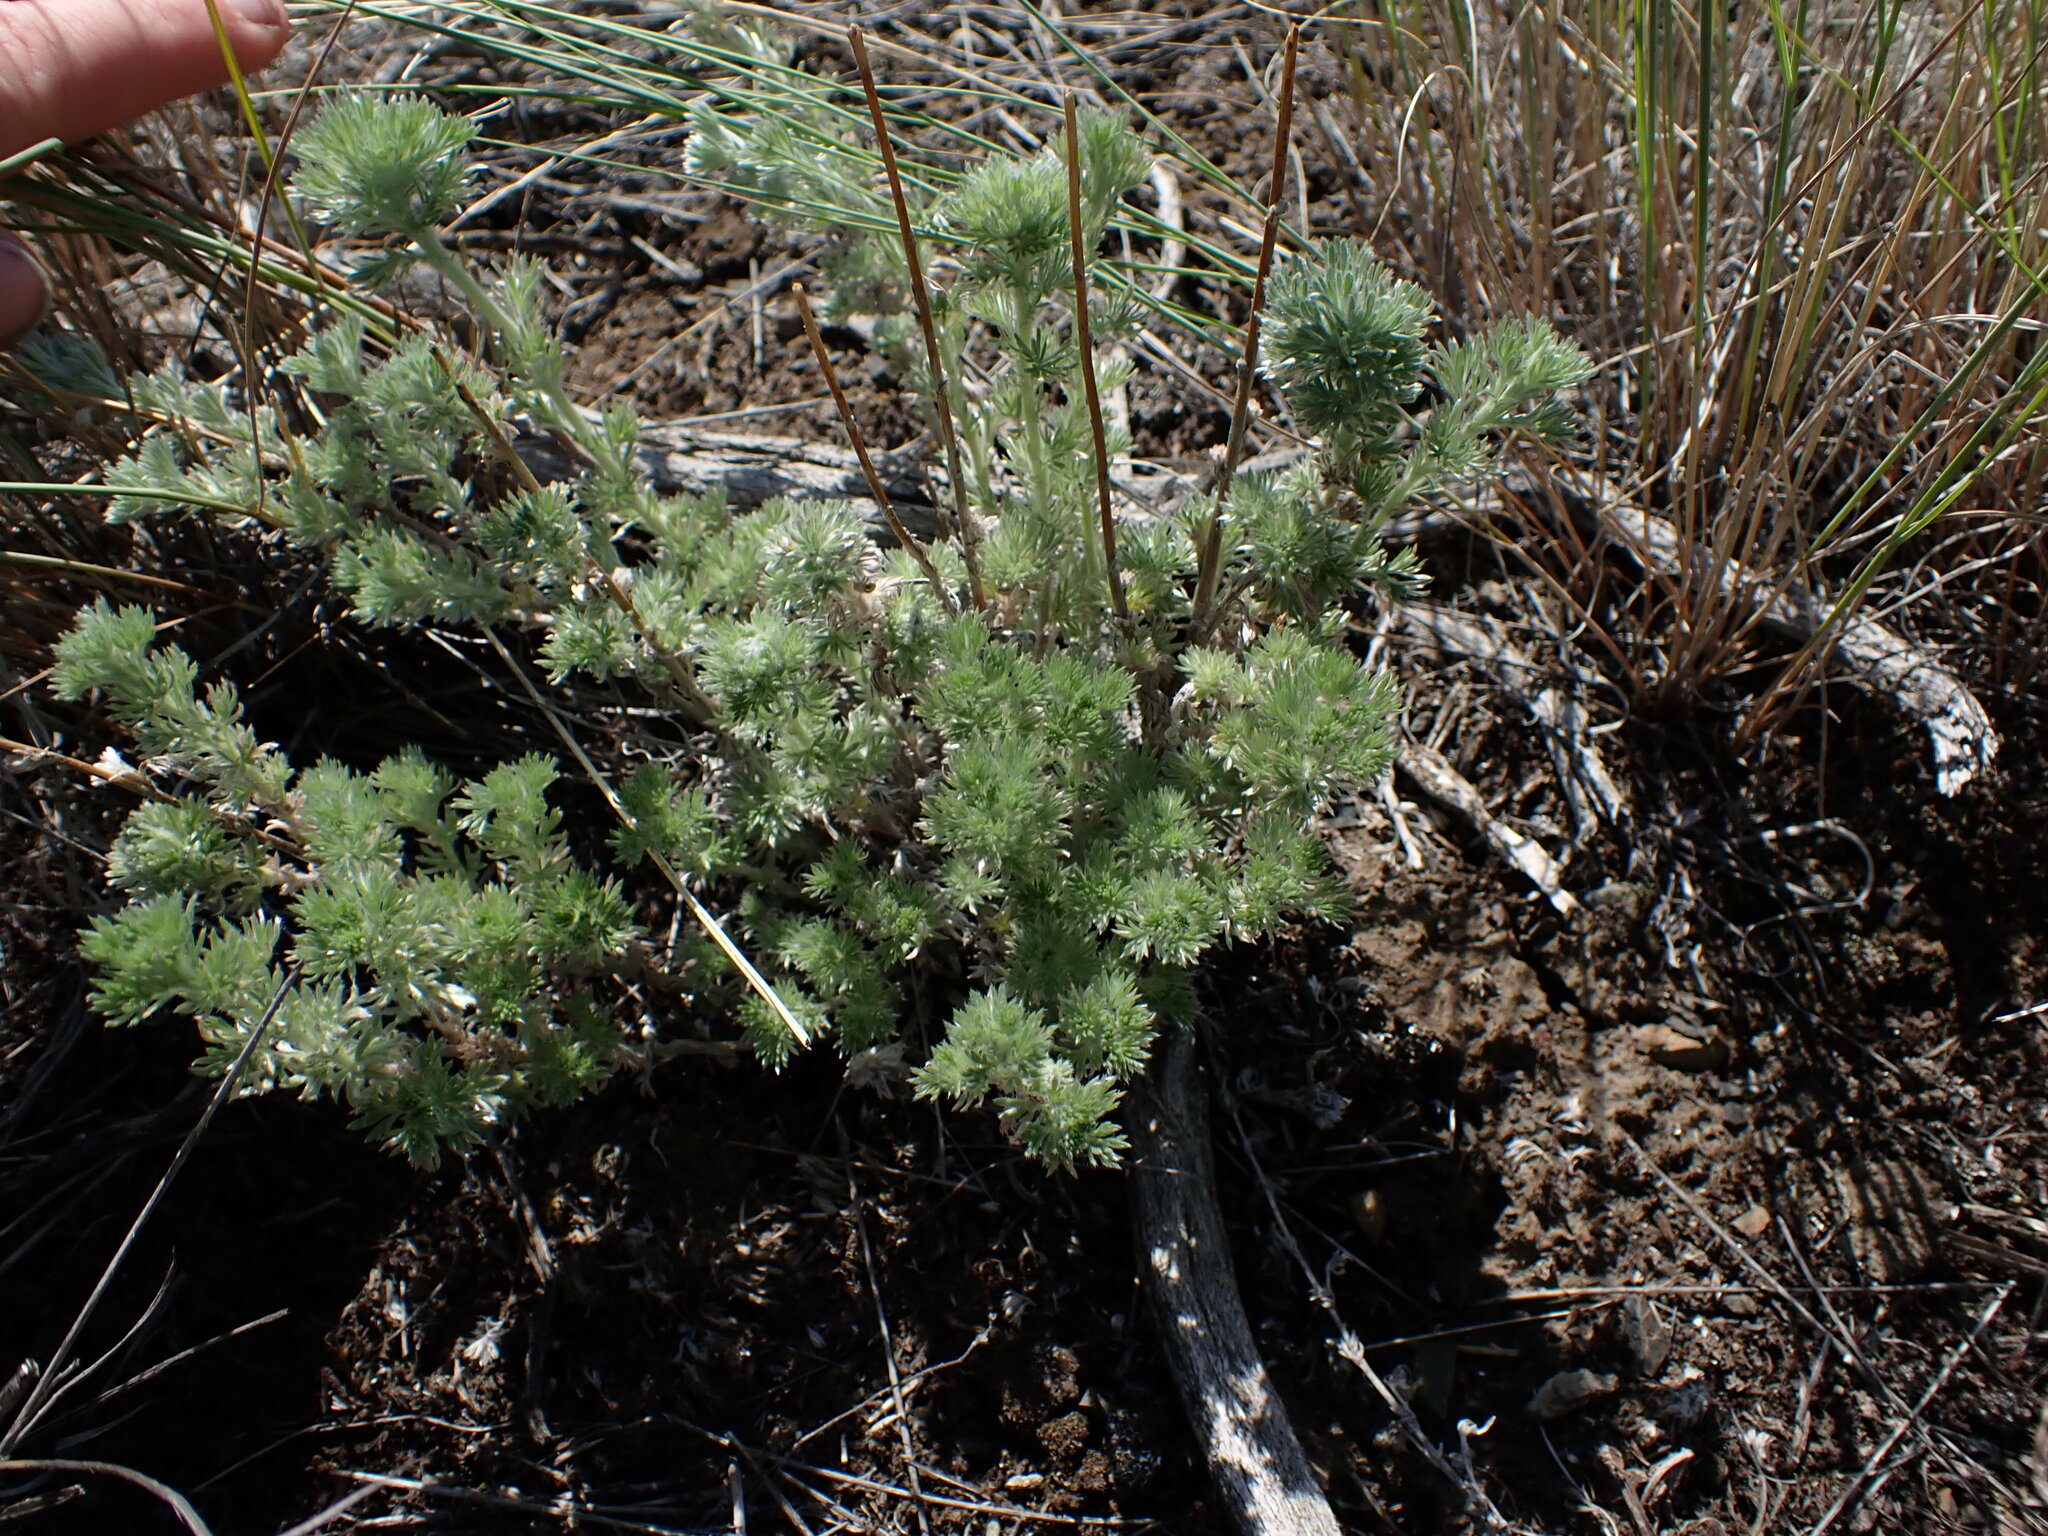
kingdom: Plantae
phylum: Tracheophyta
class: Magnoliopsida
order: Asterales
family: Asteraceae
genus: Artemisia
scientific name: Artemisia frigida
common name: Prairie sagewort
